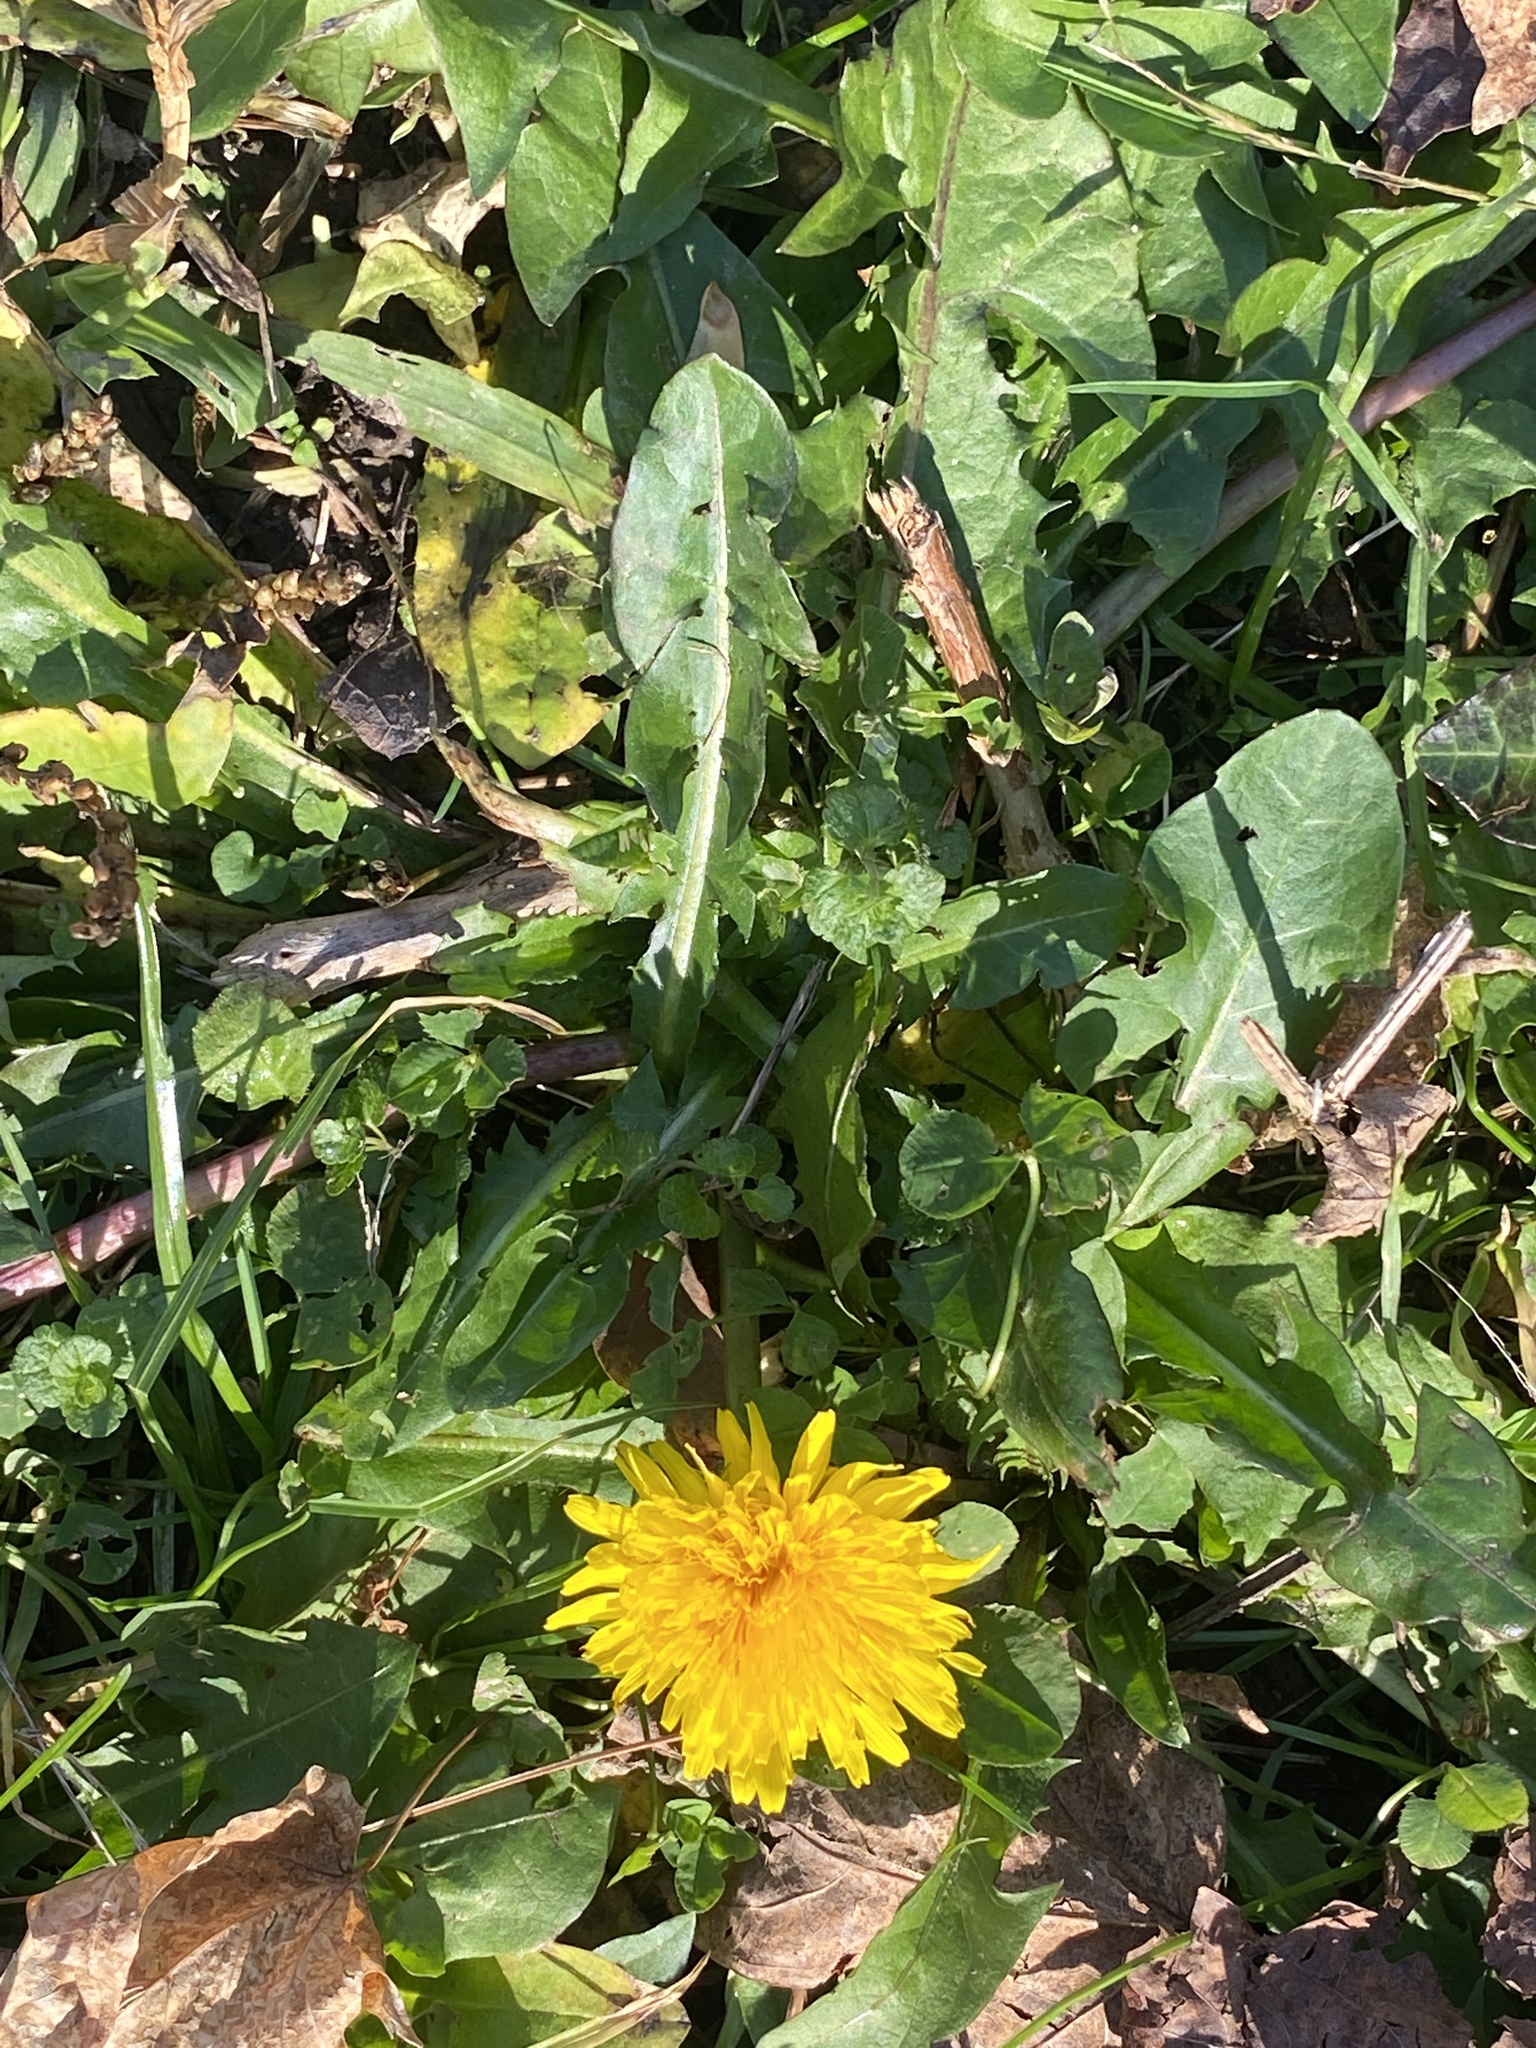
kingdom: Plantae
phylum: Tracheophyta
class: Magnoliopsida
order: Asterales
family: Asteraceae
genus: Taraxacum
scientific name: Taraxacum officinale
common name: Common dandelion
